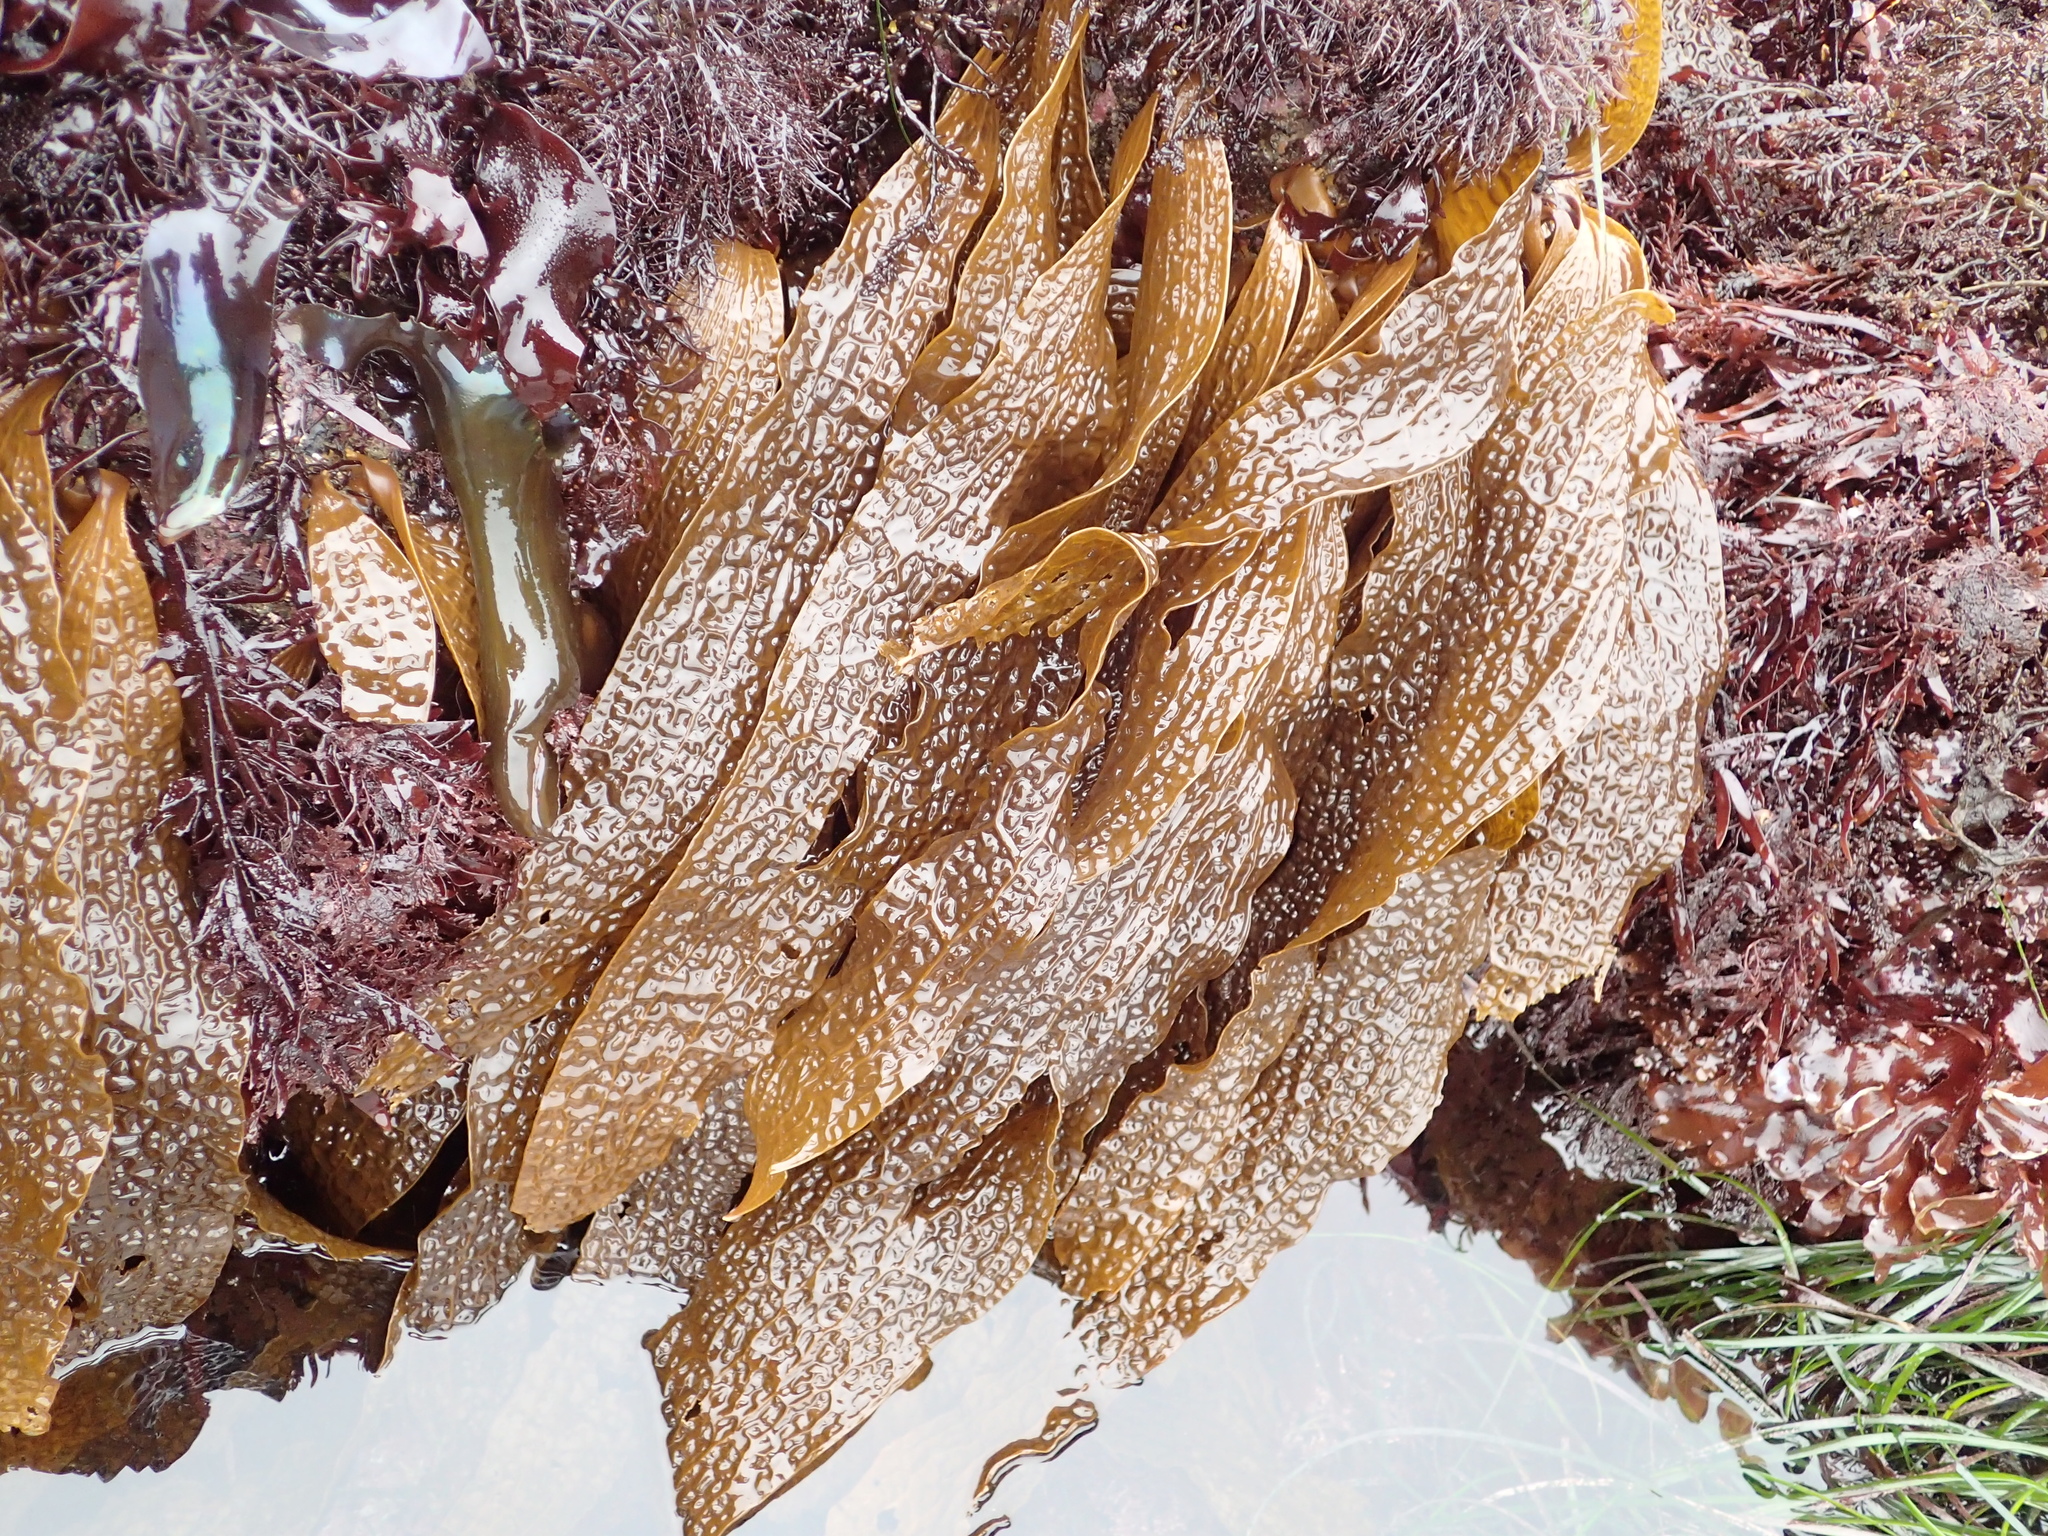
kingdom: Chromista
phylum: Ochrophyta
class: Phaeophyceae
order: Laminariales
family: Costariaceae
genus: Dictyoneurum
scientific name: Dictyoneurum californicum
